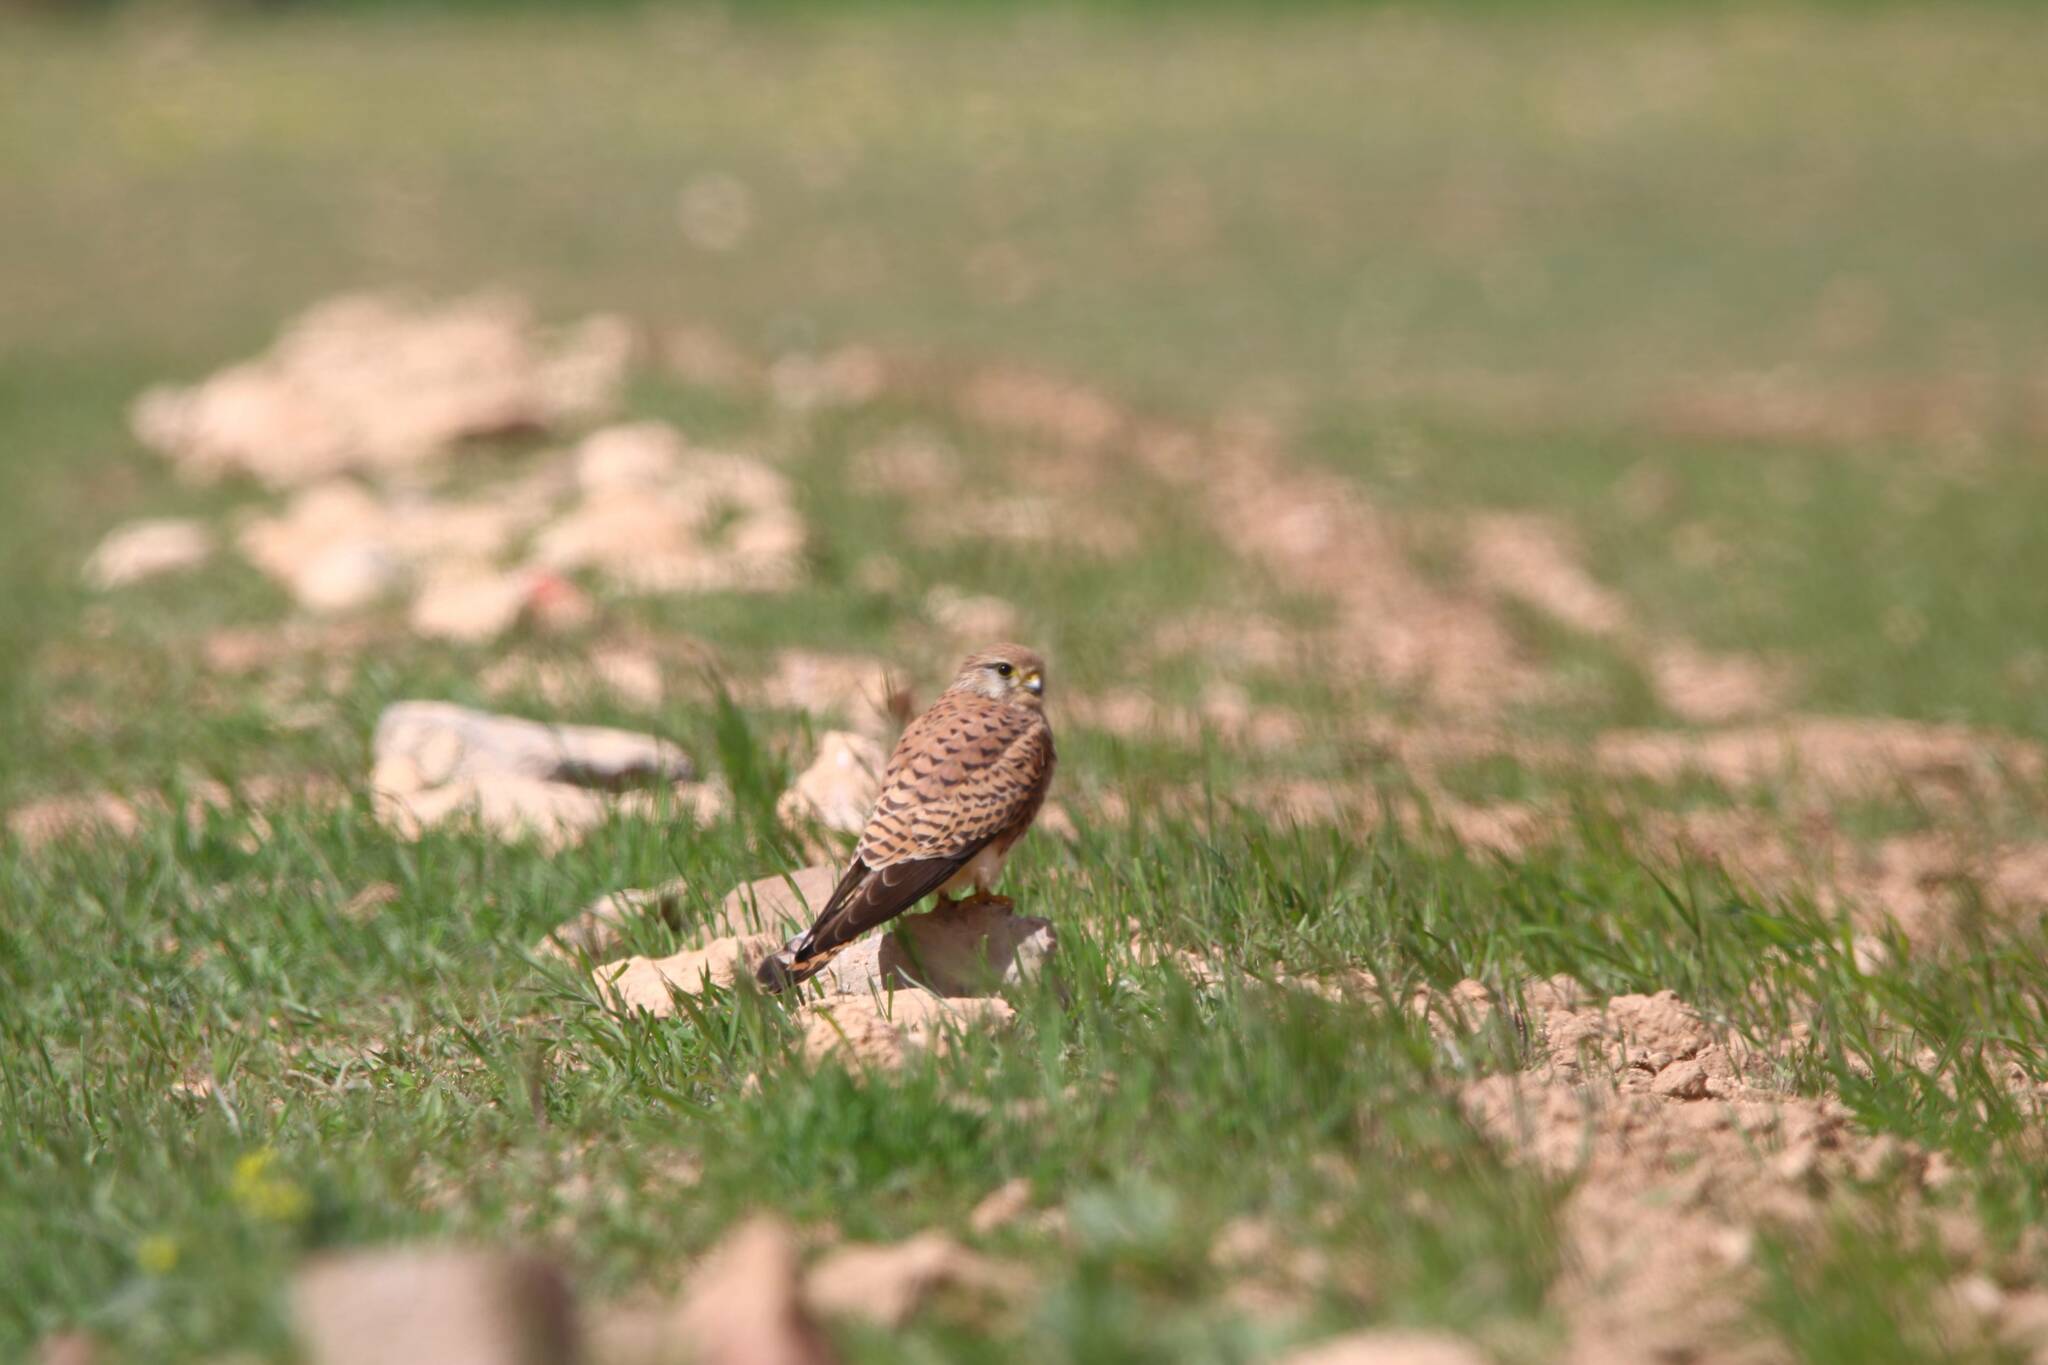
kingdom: Animalia
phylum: Chordata
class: Aves
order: Falconiformes
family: Falconidae
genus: Falco
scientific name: Falco tinnunculus
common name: Common kestrel
